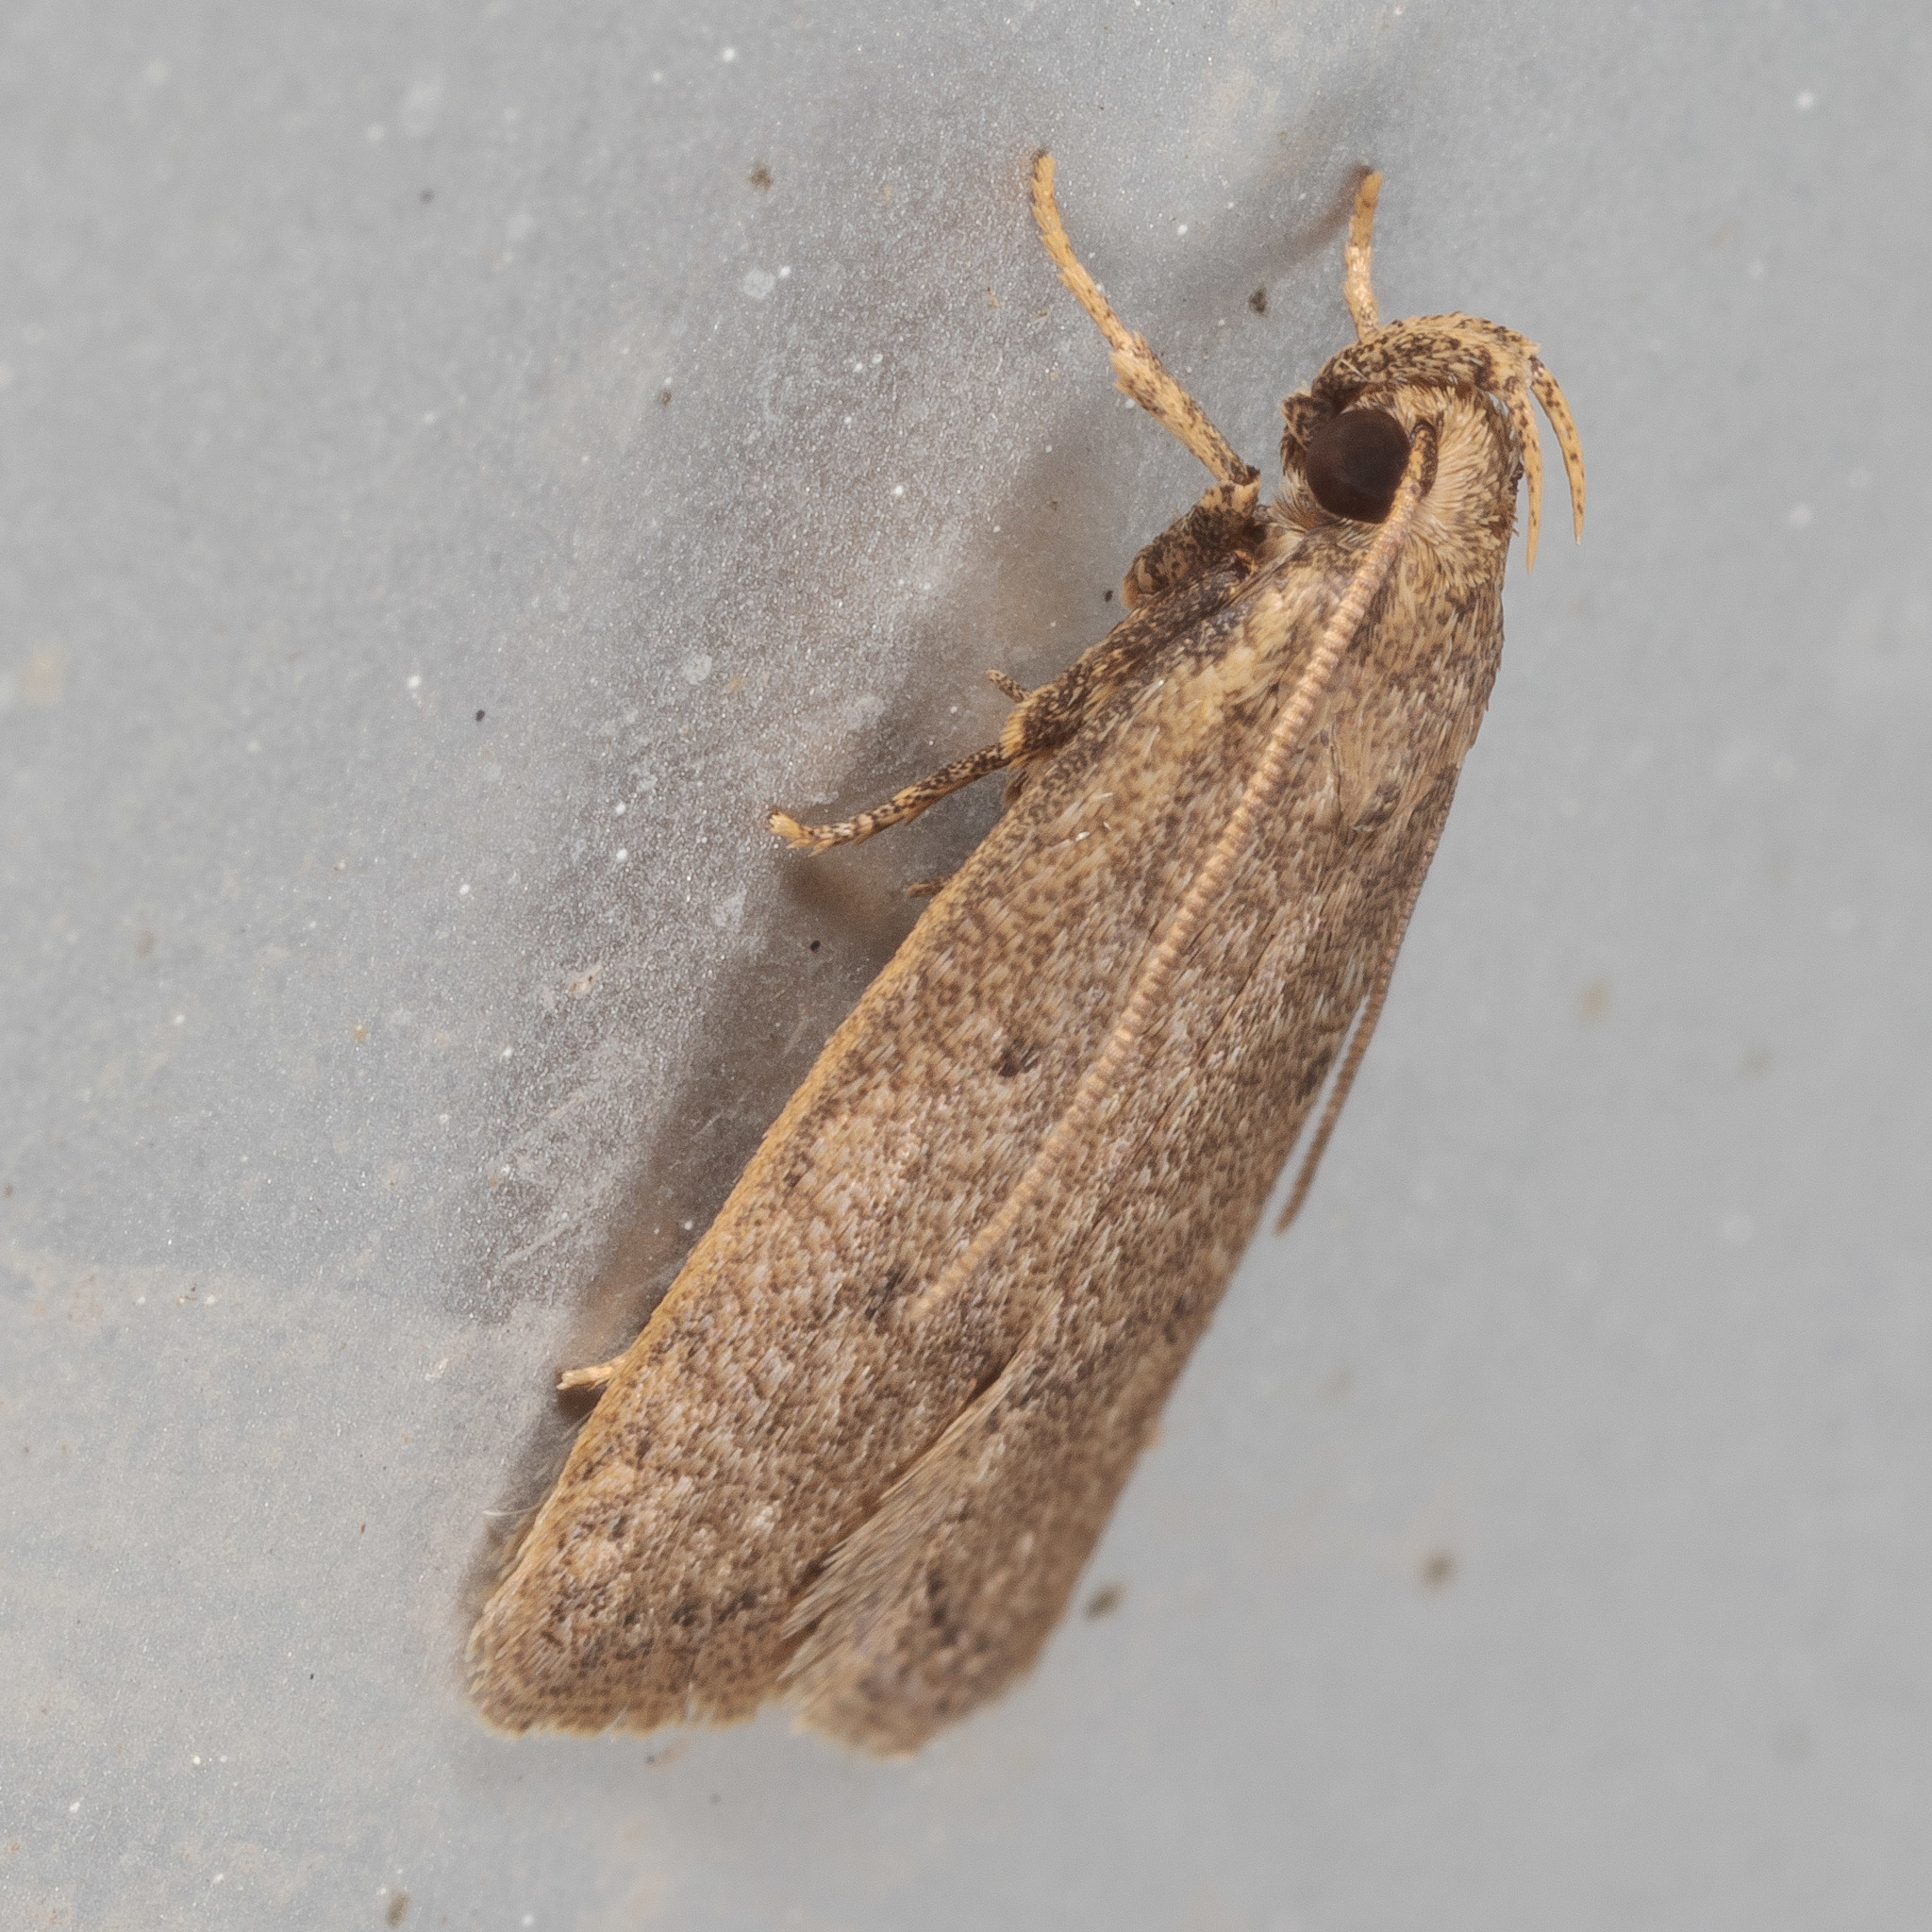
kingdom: Animalia
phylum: Arthropoda
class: Insecta
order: Lepidoptera
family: Autostichidae
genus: Autosticha
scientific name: Autosticha kyotensis
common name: Kyoto moth
